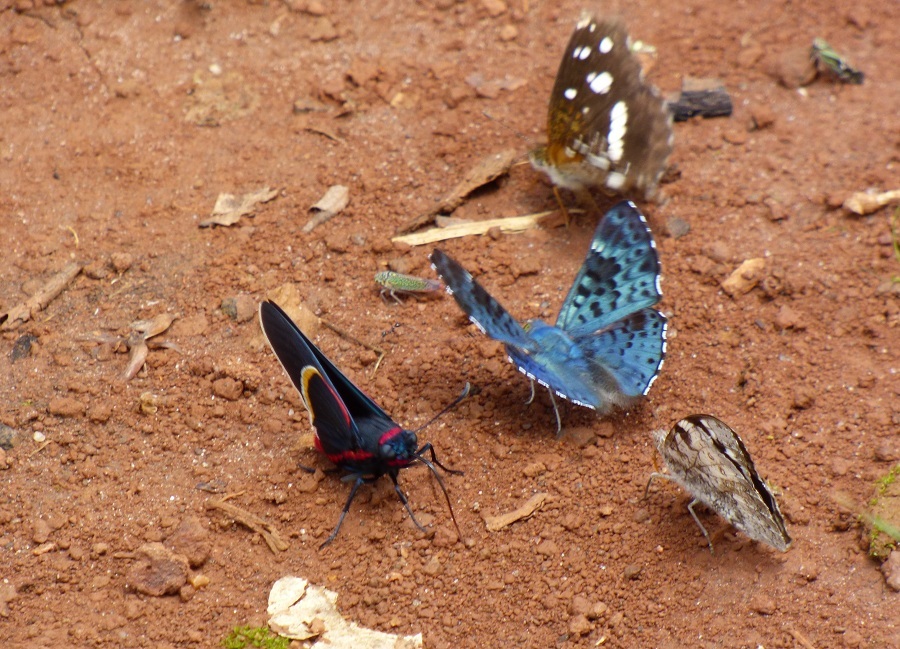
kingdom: Animalia
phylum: Arthropoda
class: Insecta
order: Lepidoptera
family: Riodinidae
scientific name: Riodinidae
